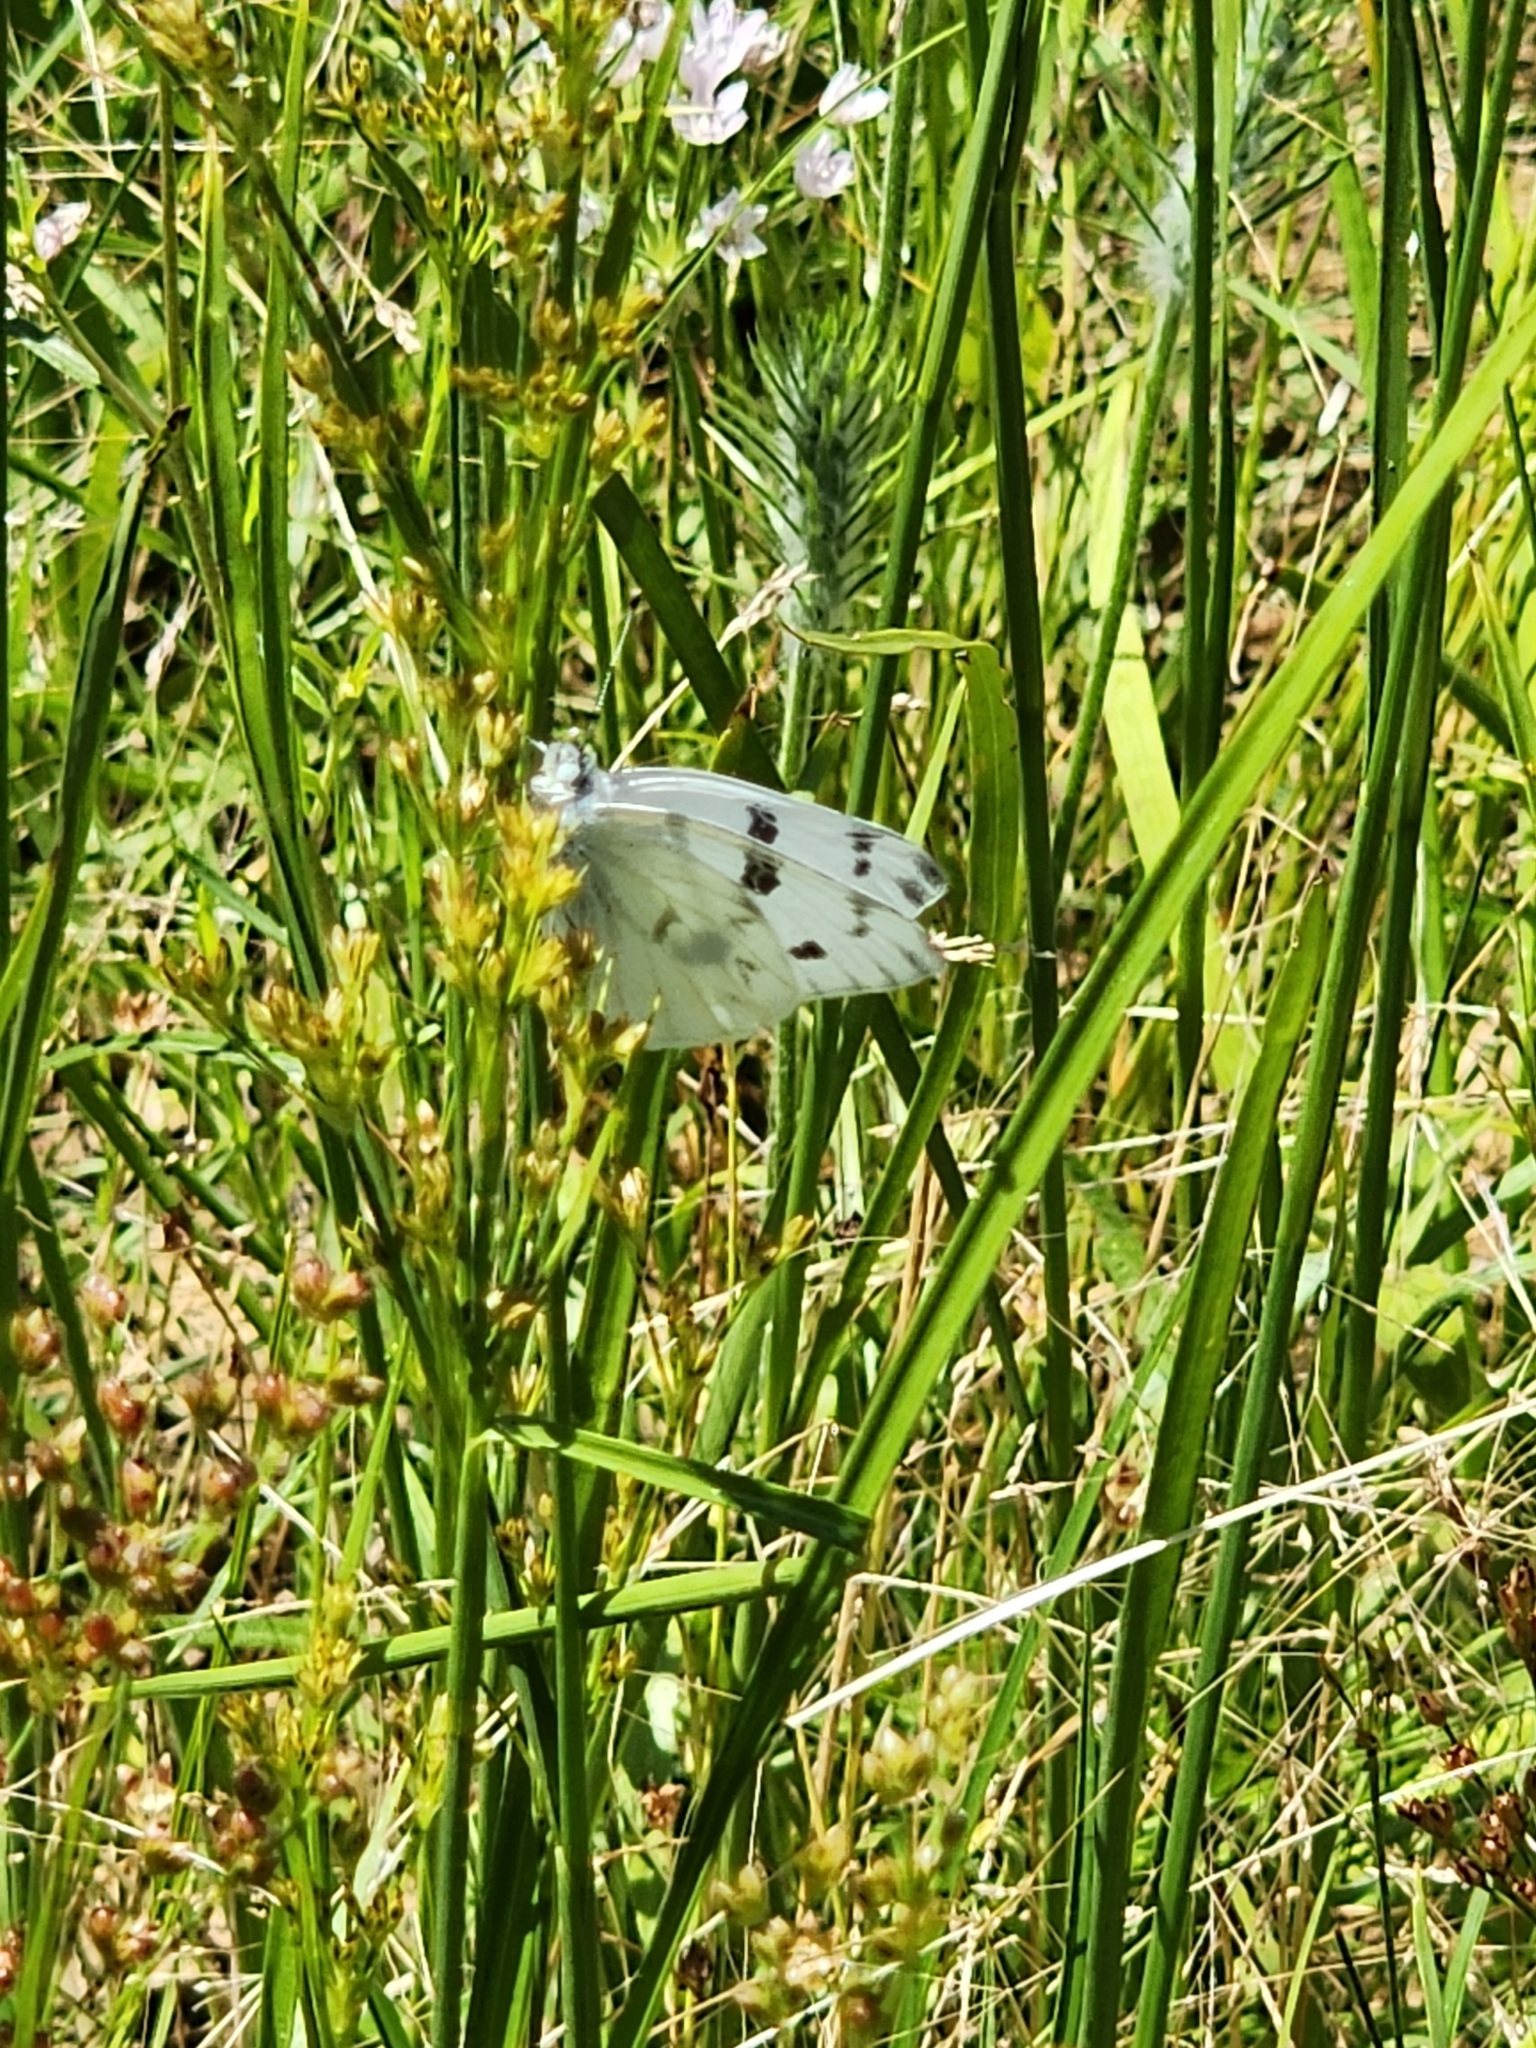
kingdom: Animalia
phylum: Arthropoda
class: Insecta
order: Lepidoptera
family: Pieridae
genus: Pontia
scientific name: Pontia protodice
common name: Checkered white
